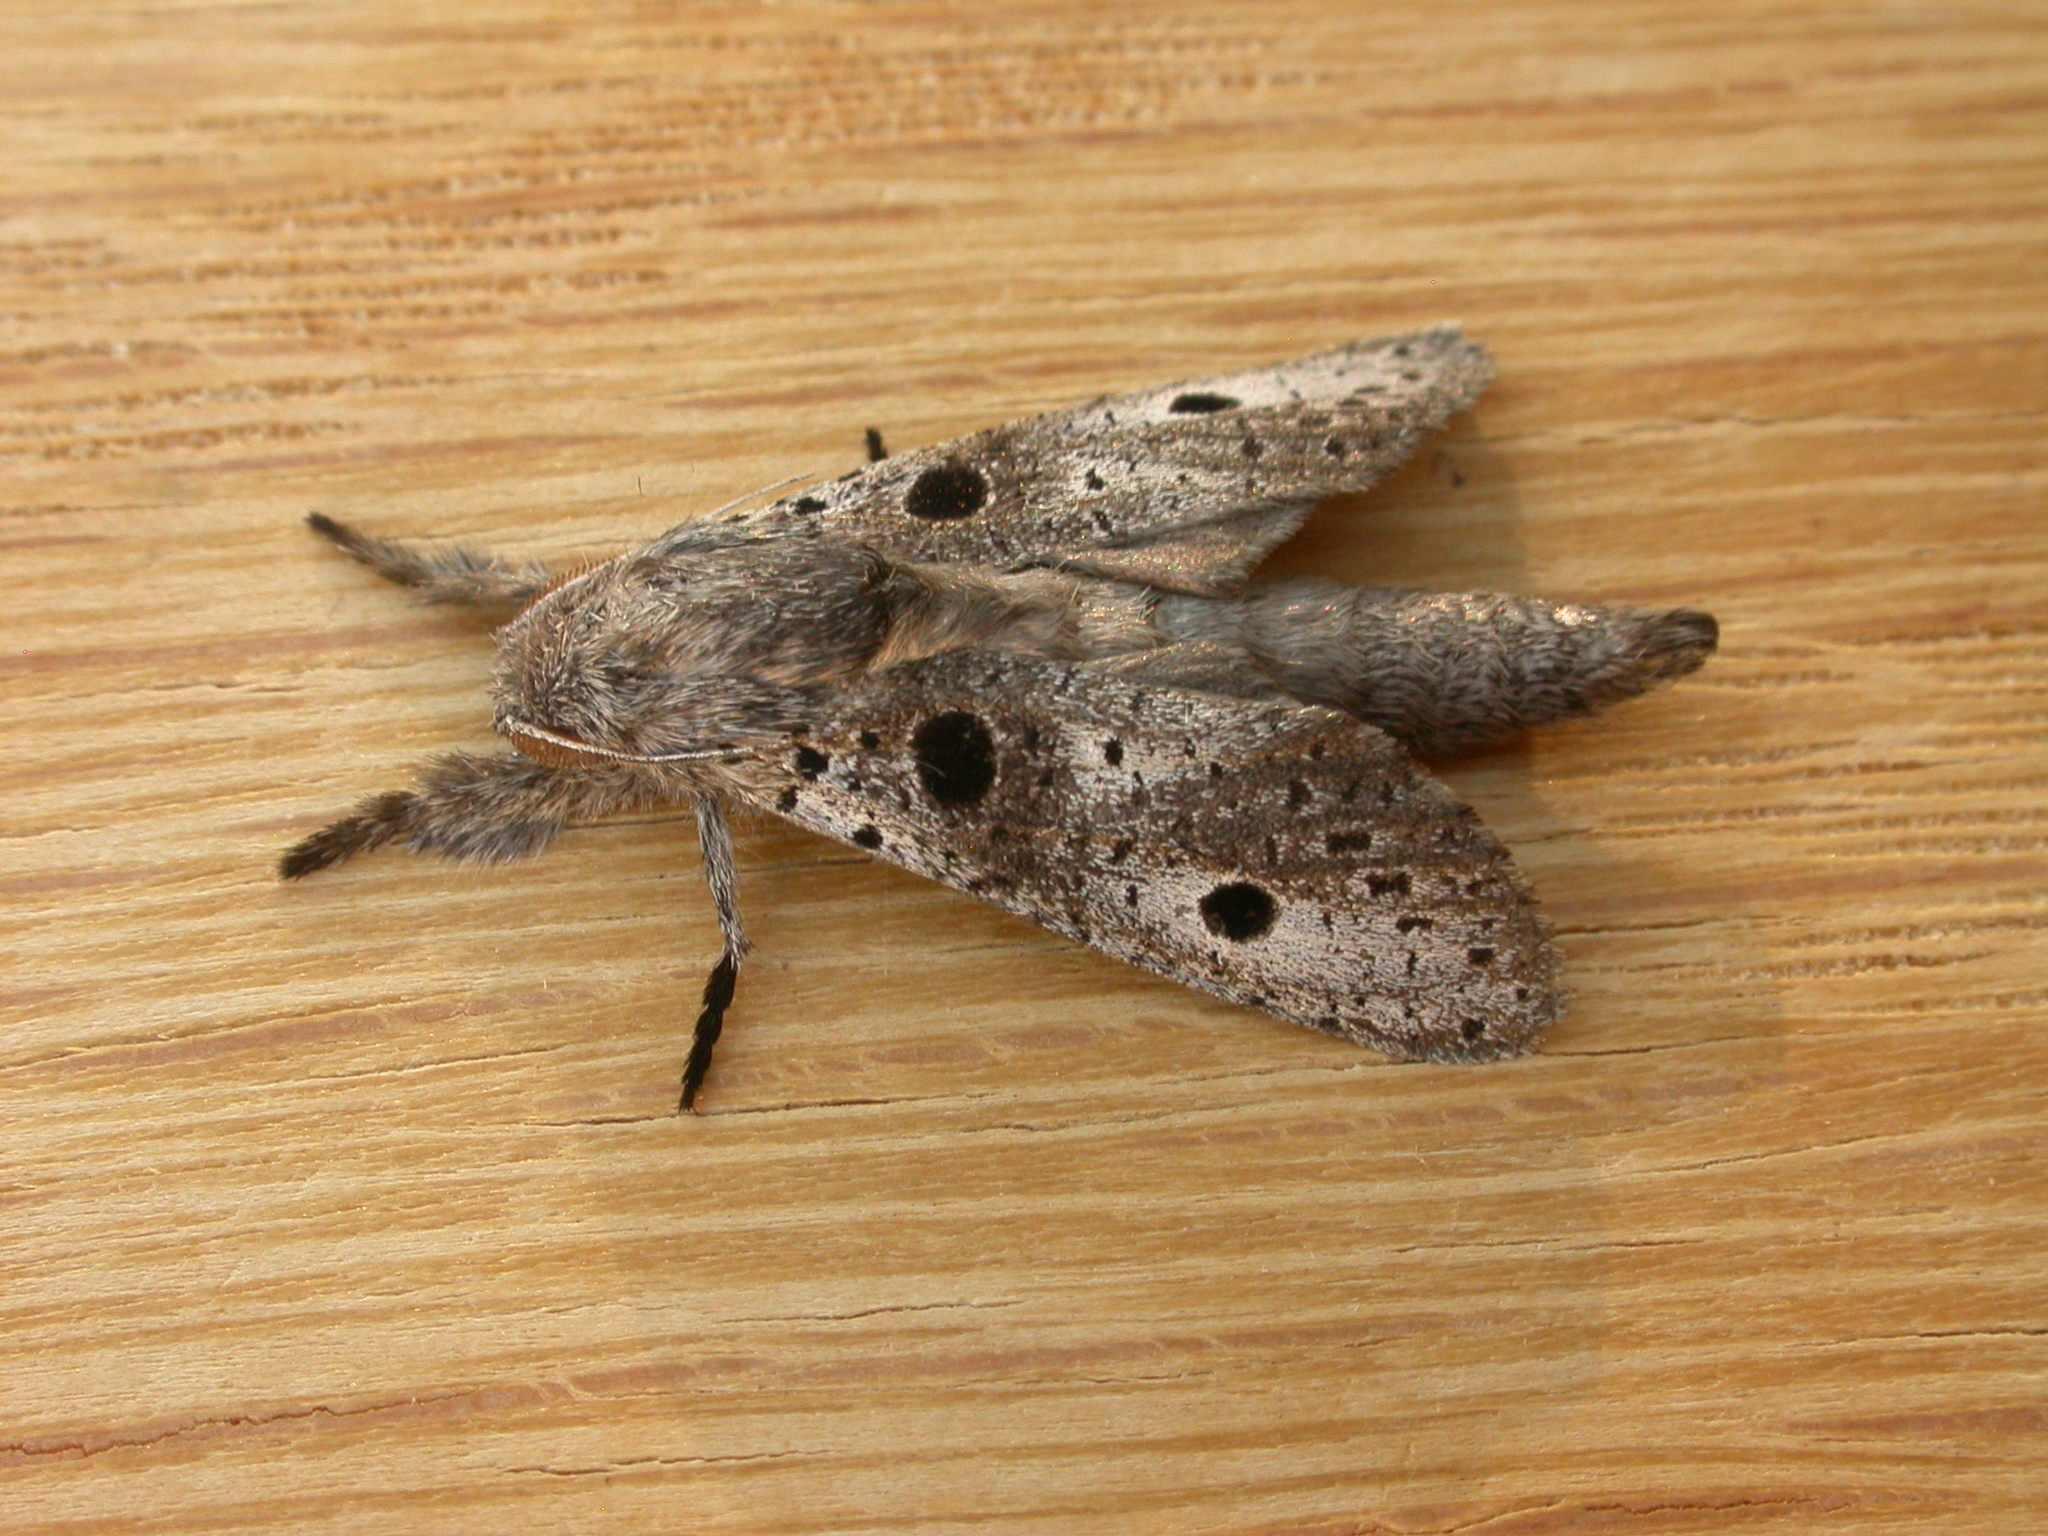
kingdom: Animalia
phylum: Arthropoda
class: Insecta
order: Lepidoptera
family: Cossidae
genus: Sympycnodes
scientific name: Sympycnodes
